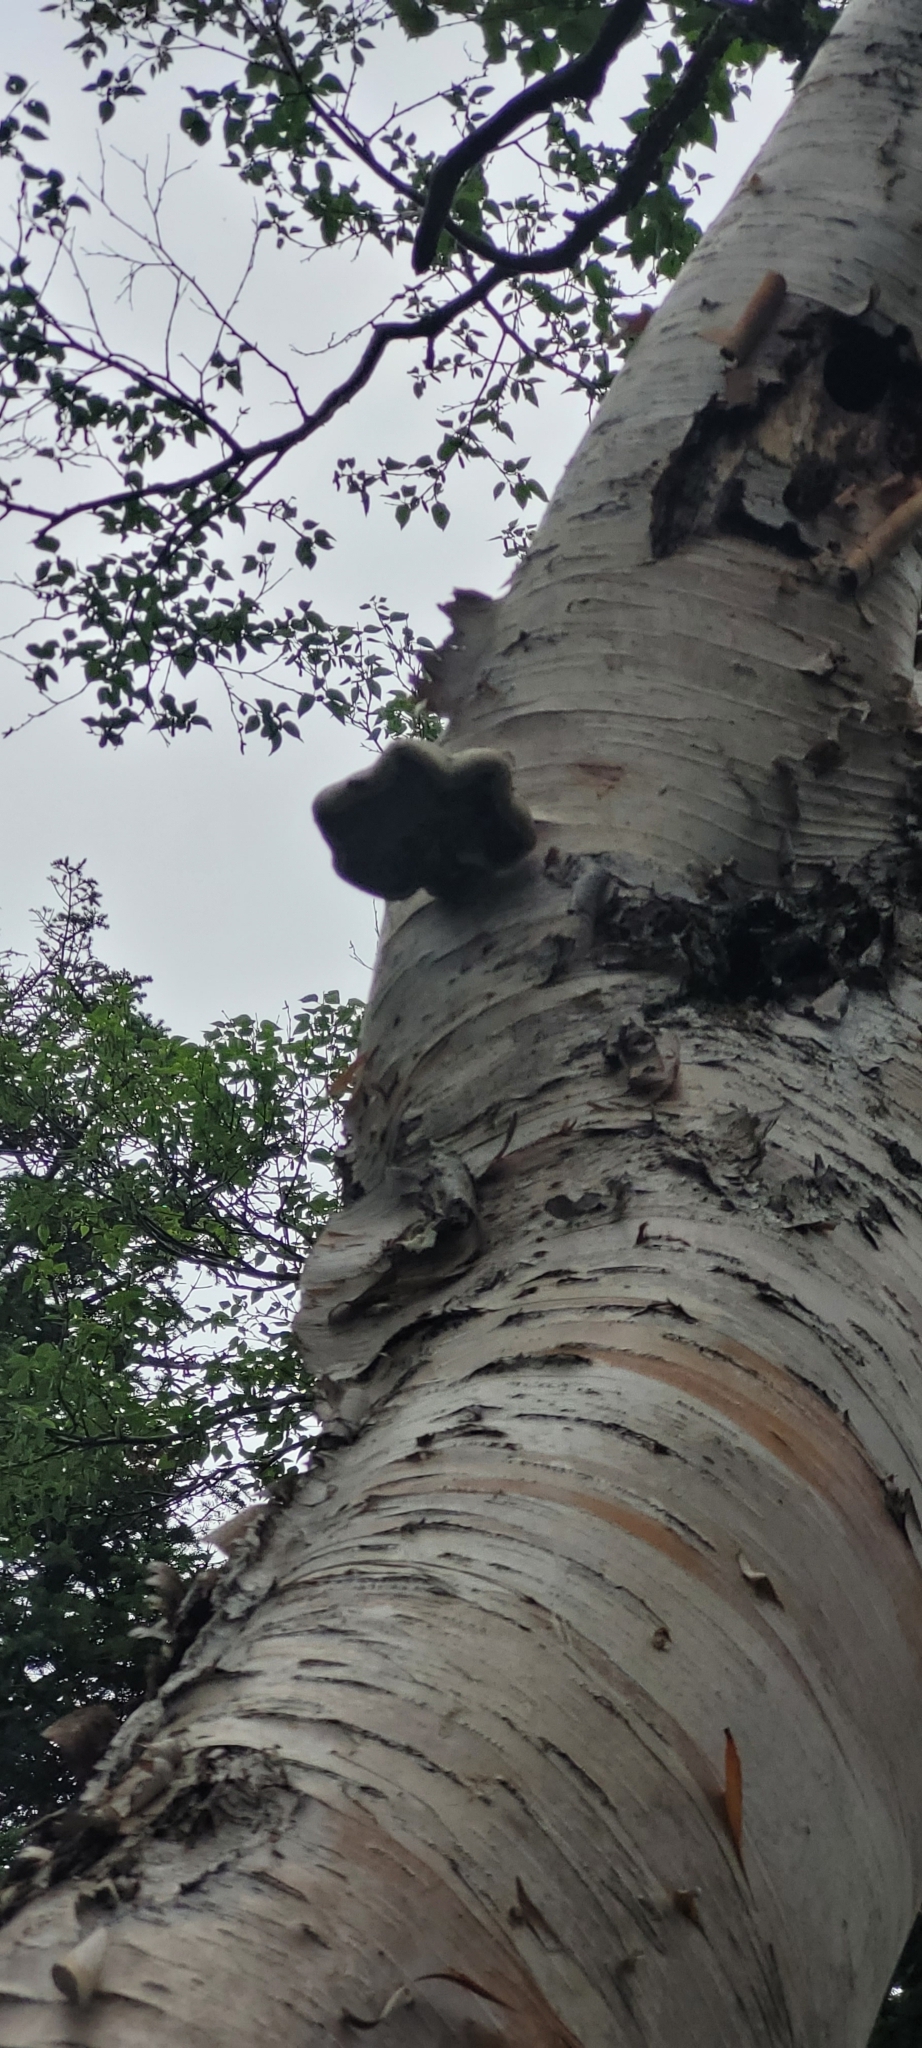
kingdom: Fungi
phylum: Basidiomycota
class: Agaricomycetes
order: Polyporales
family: Fomitopsidaceae
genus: Fomitopsis
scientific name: Fomitopsis betulina
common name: Birch polypore
